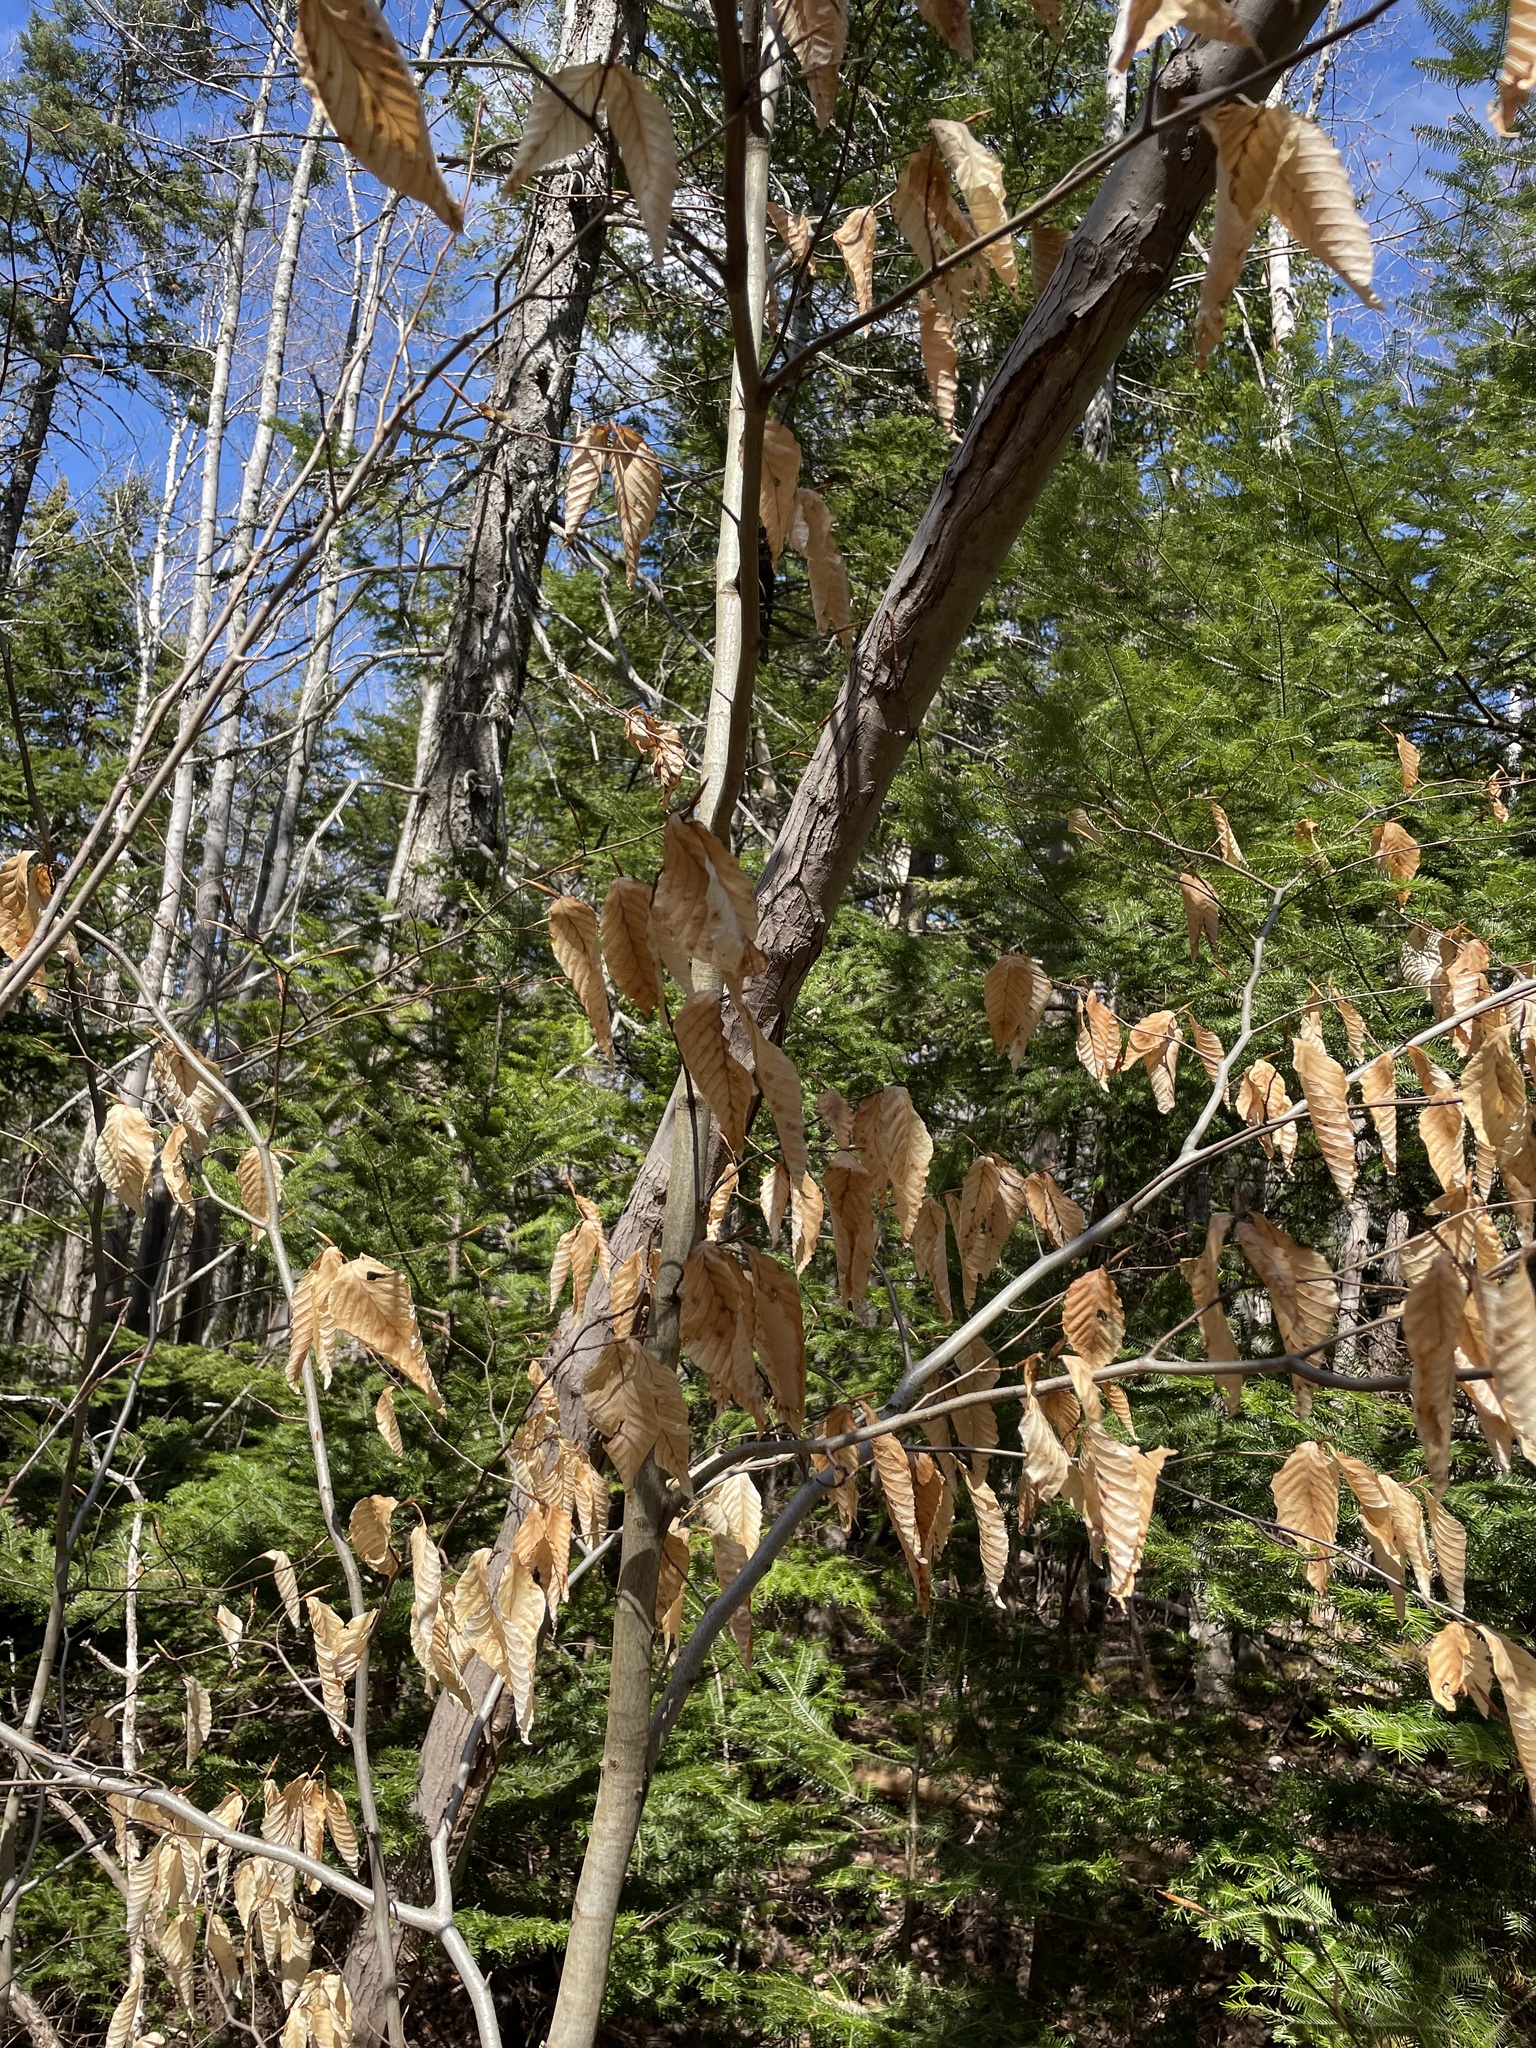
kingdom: Plantae
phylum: Tracheophyta
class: Magnoliopsida
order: Fagales
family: Fagaceae
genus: Fagus
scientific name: Fagus grandifolia
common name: American beech
